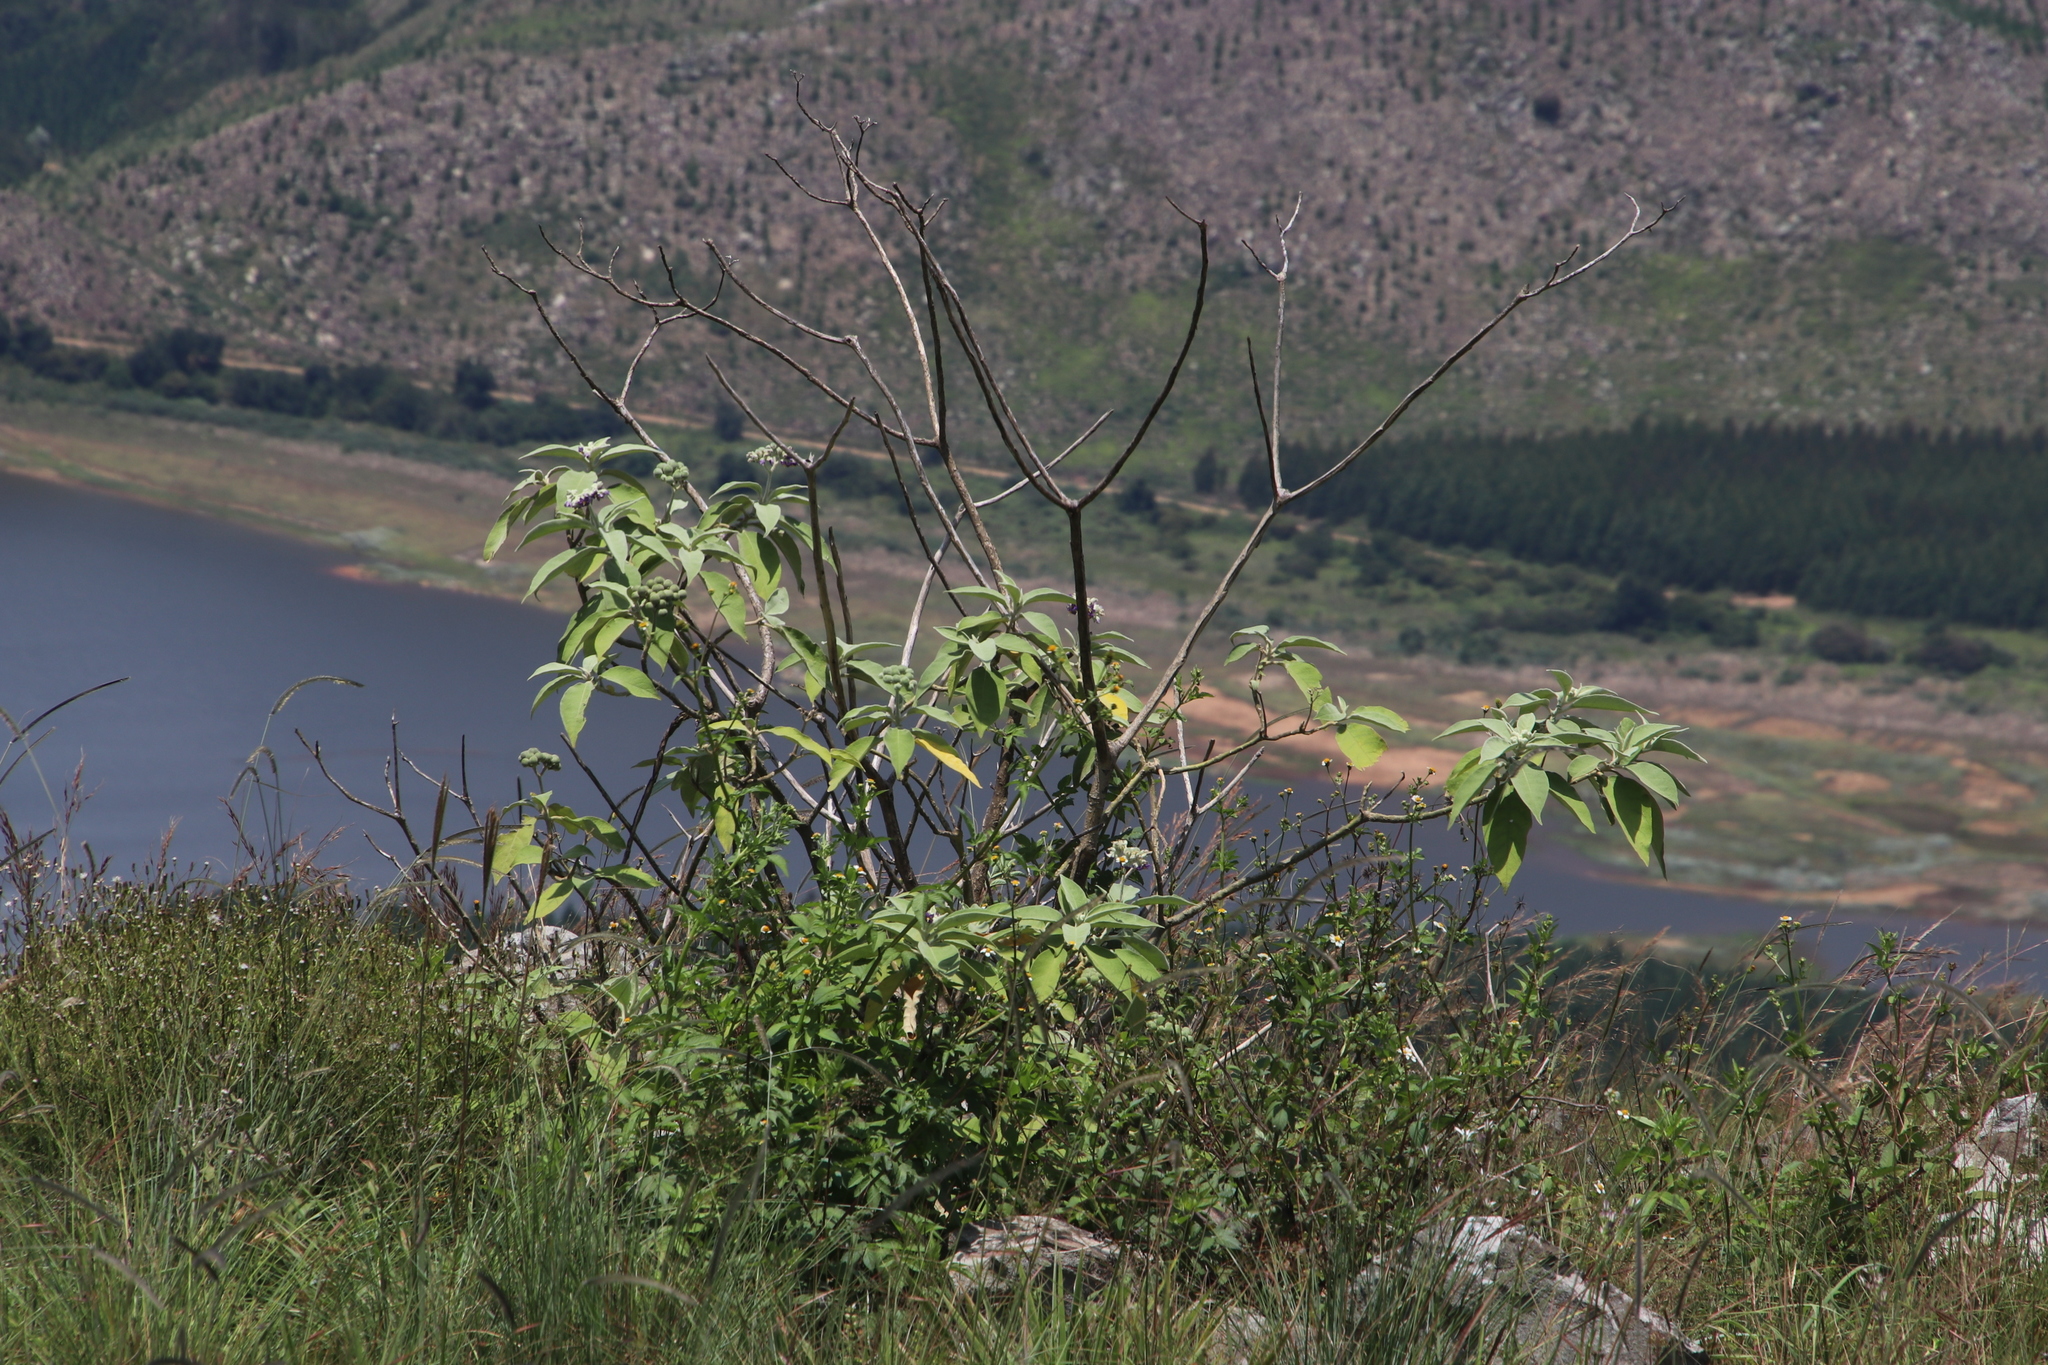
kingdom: Plantae
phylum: Tracheophyta
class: Magnoliopsida
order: Solanales
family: Solanaceae
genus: Solanum
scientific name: Solanum mauritianum
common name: Earleaf nightshade
